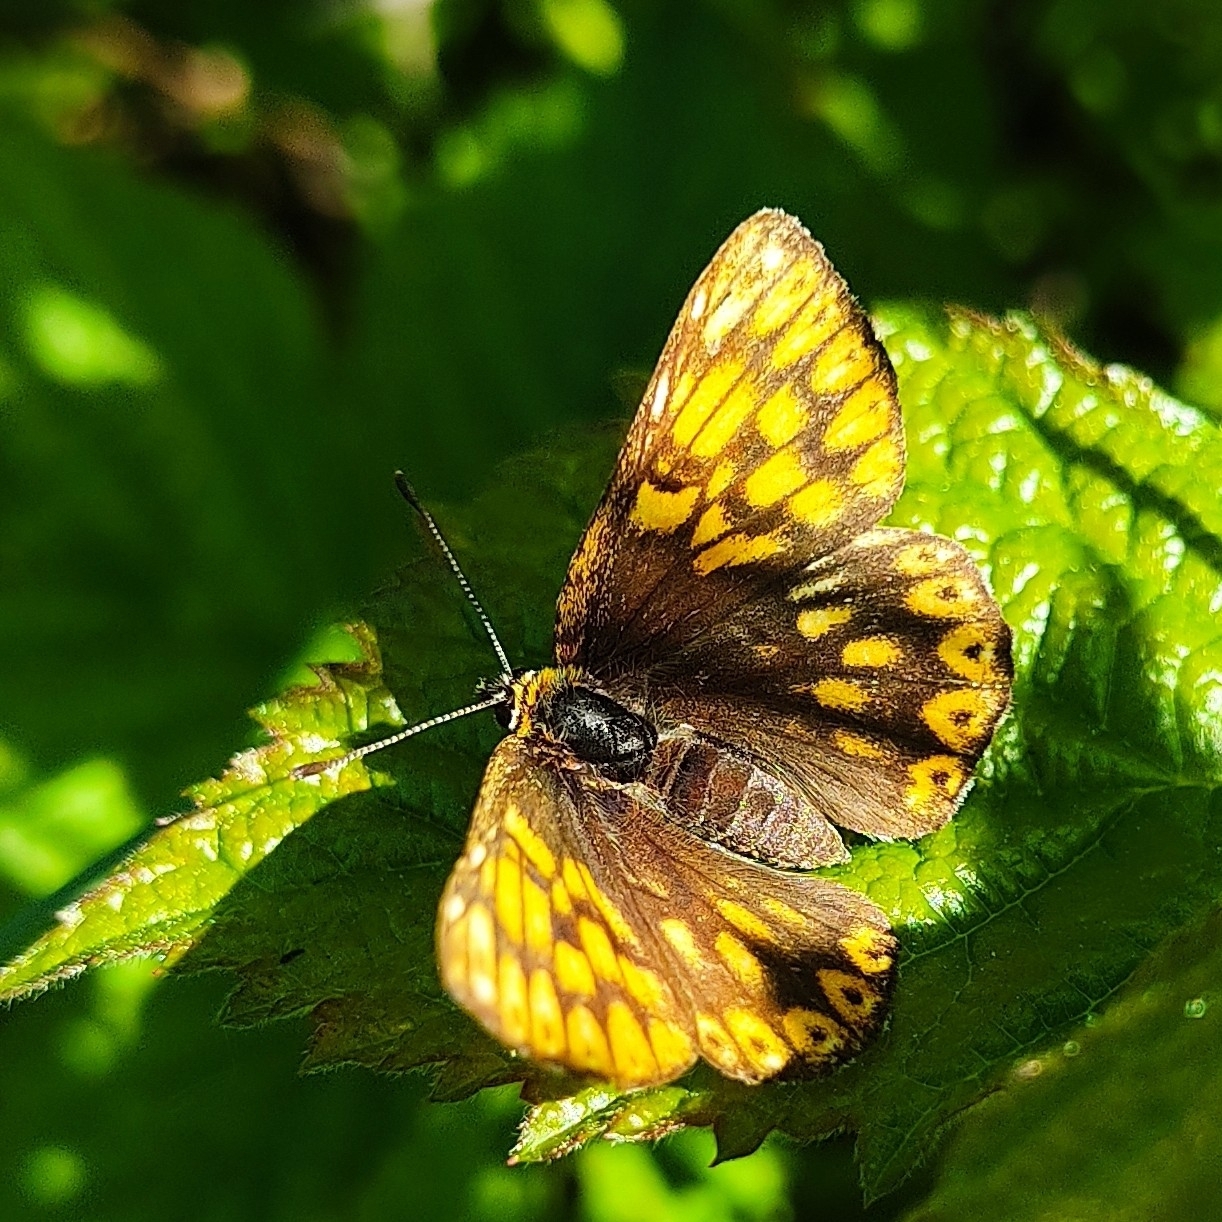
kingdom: Animalia
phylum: Arthropoda
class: Insecta
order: Lepidoptera
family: Riodinidae
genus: Hamearis
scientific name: Hamearis lucina
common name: Duke of burgundy fritillary
